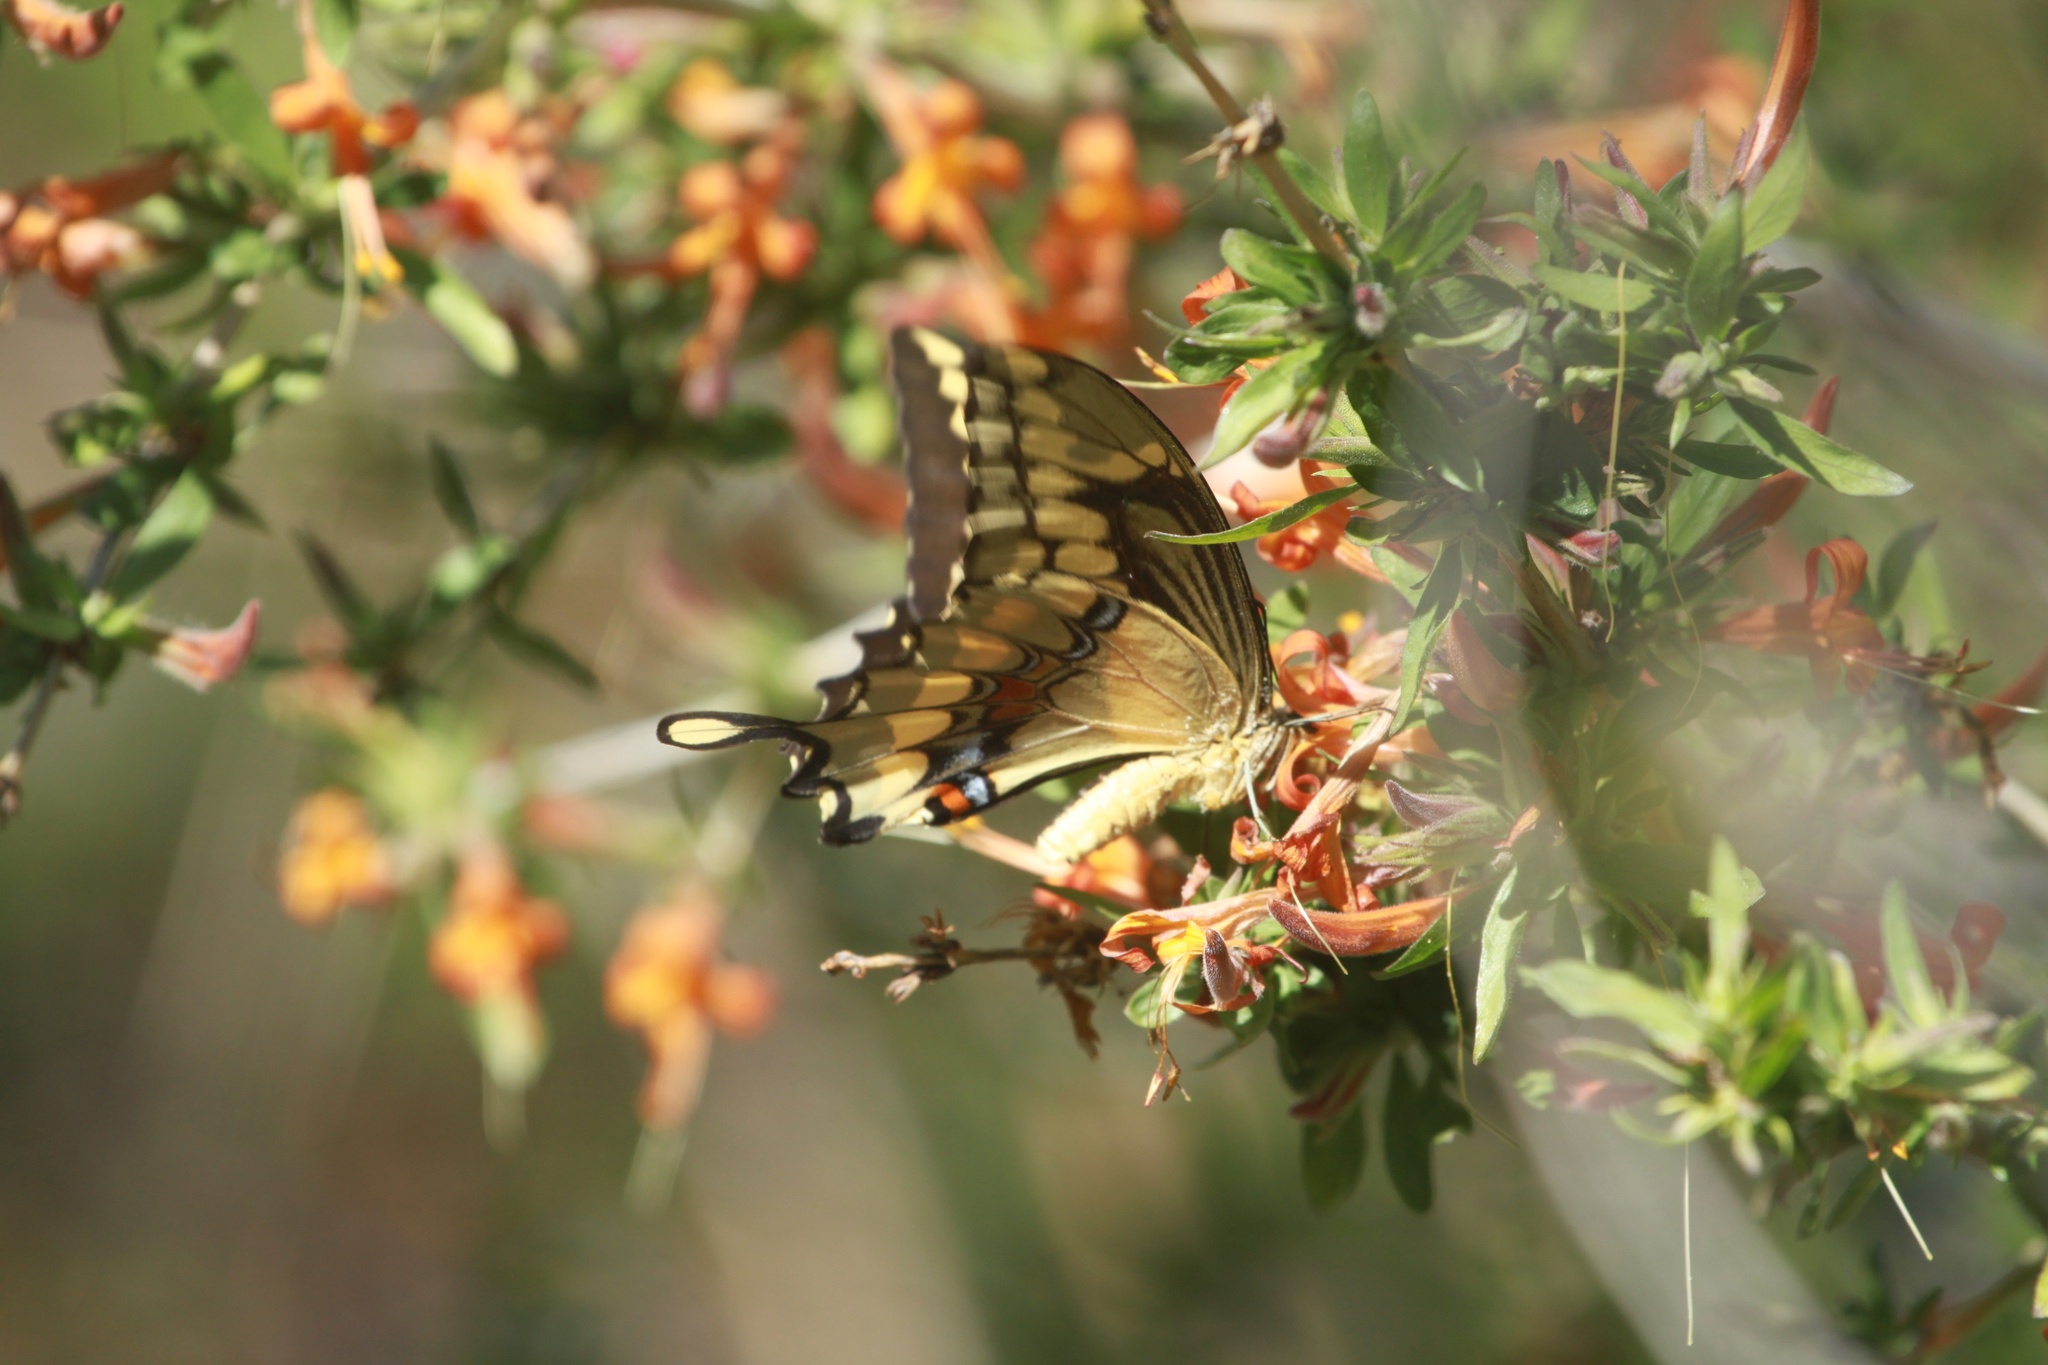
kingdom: Animalia
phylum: Arthropoda
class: Insecta
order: Lepidoptera
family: Papilionidae
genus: Papilio
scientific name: Papilio rumiko
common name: Western giant swallowtail
